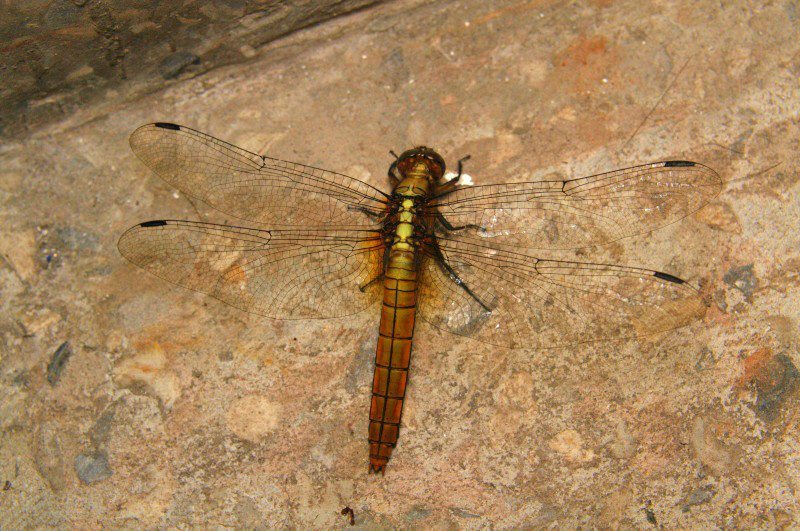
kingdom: Animalia
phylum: Arthropoda
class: Insecta
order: Odonata
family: Libellulidae
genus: Orthetrum
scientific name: Orthetrum pruinosum
